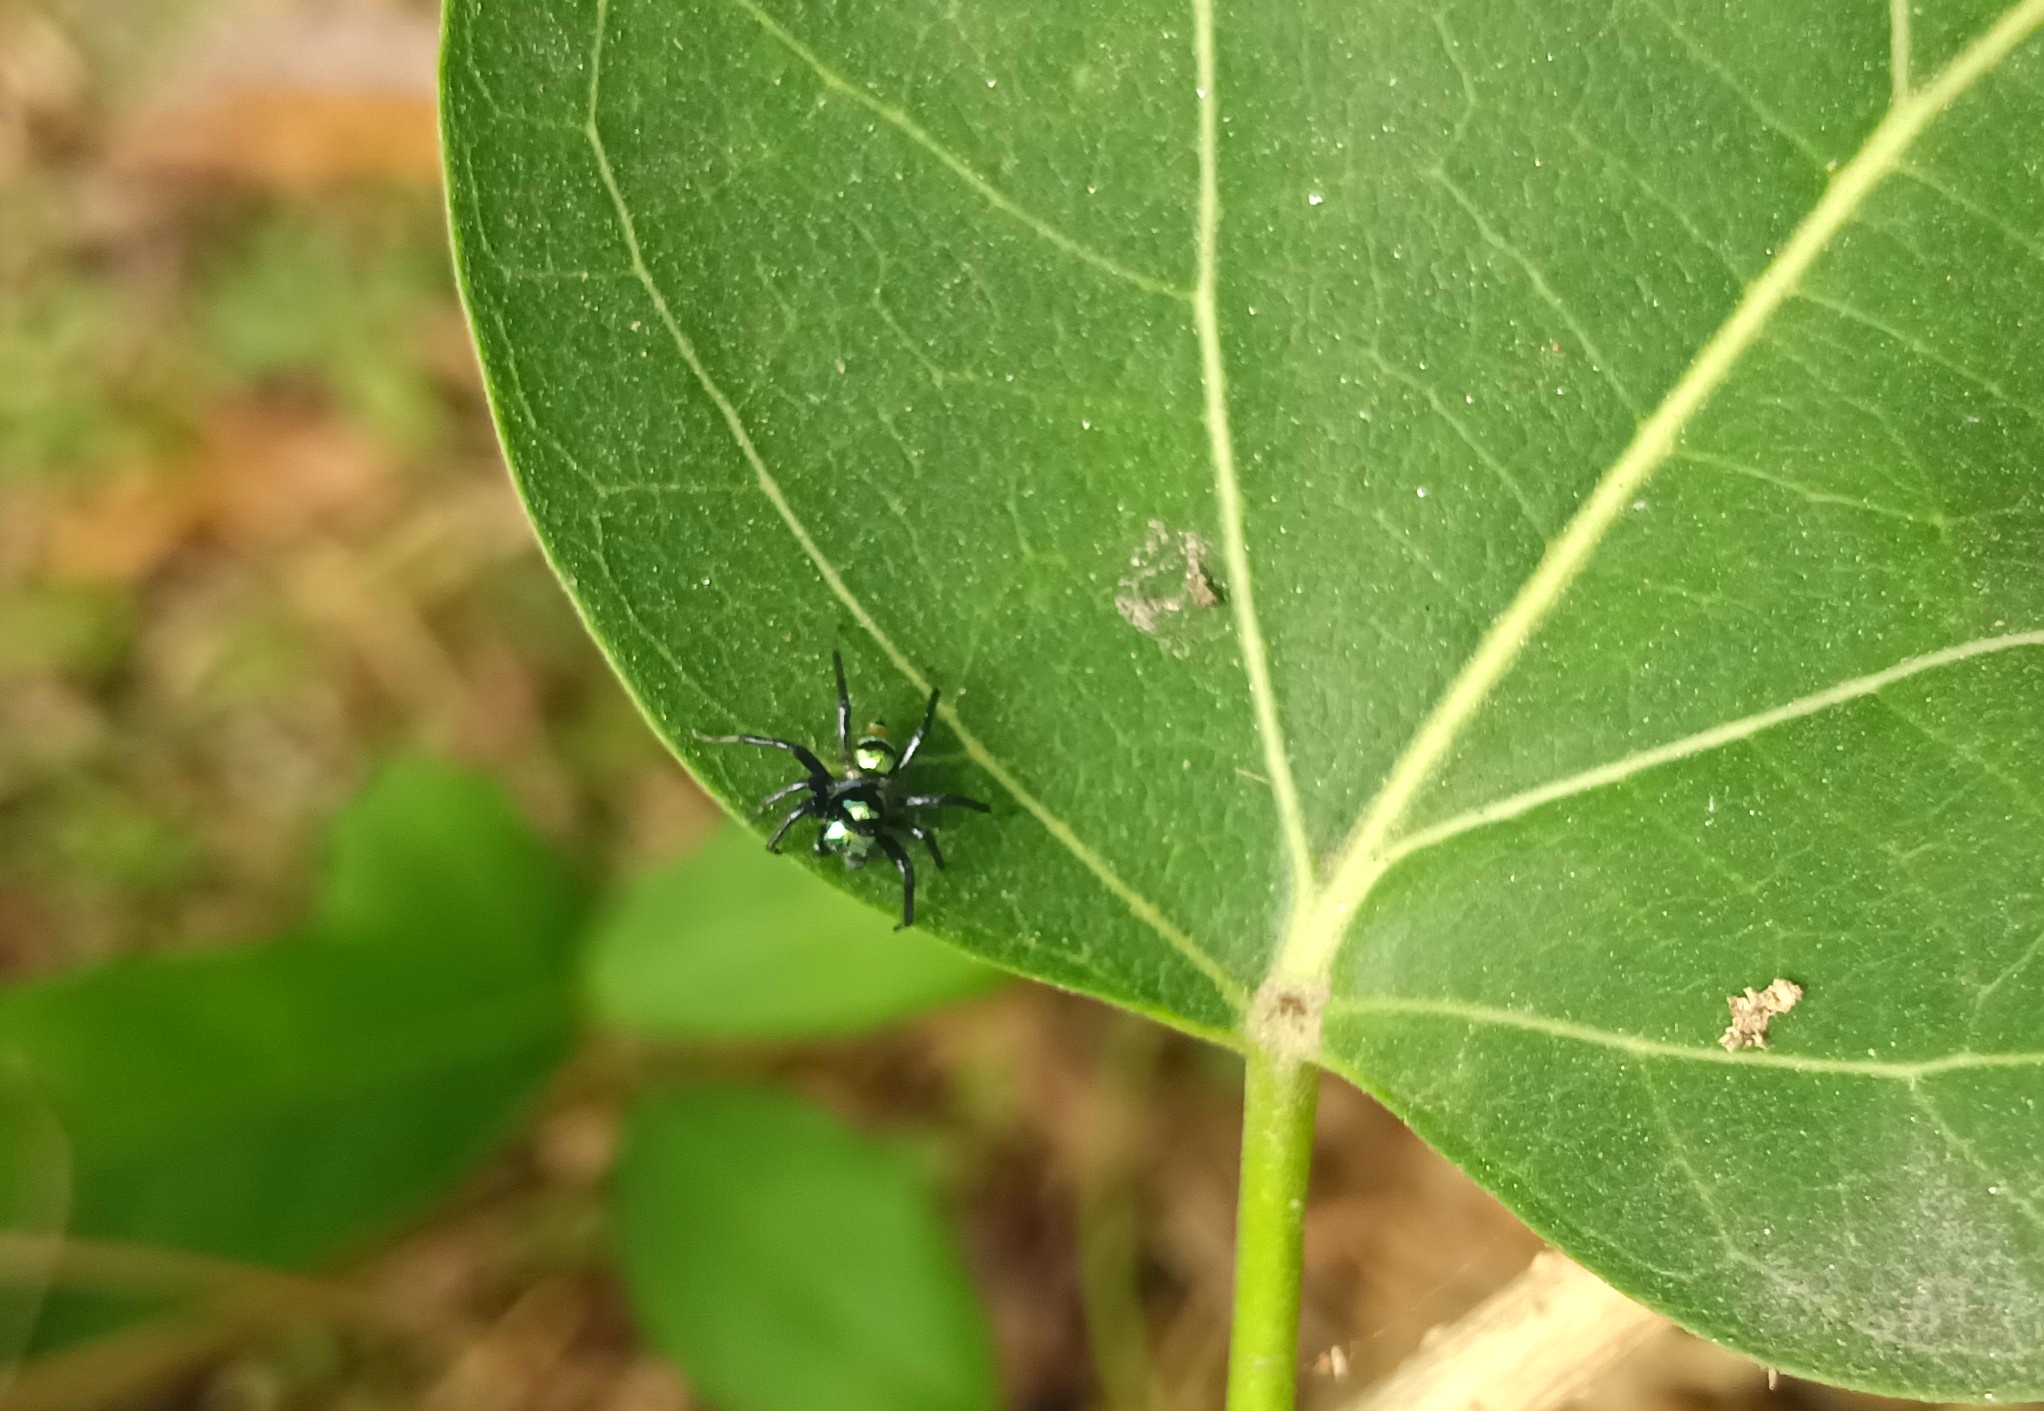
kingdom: Animalia
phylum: Arthropoda
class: Arachnida
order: Araneae
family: Salticidae
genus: Phintella
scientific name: Phintella vittata
